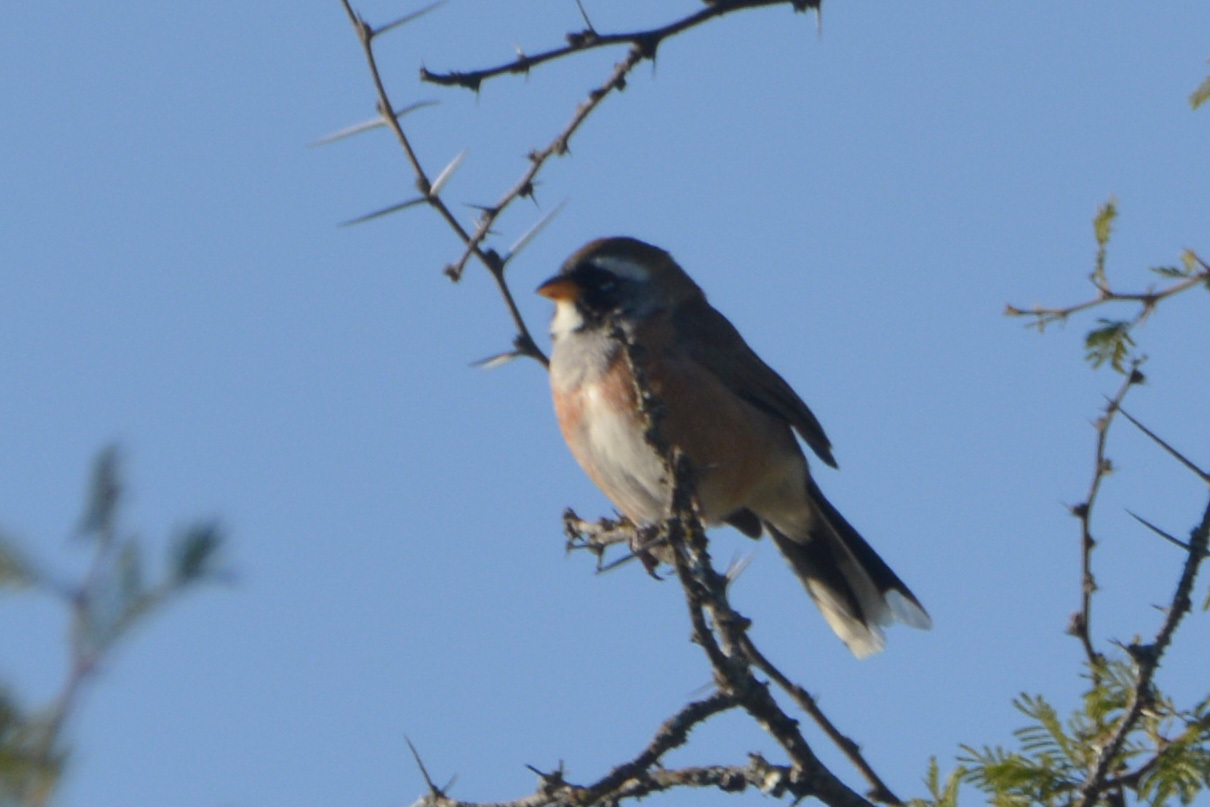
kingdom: Animalia
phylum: Chordata
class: Aves
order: Passeriformes
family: Thraupidae
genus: Saltatricula
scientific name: Saltatricula multicolor
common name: Many-colored chaco finch
